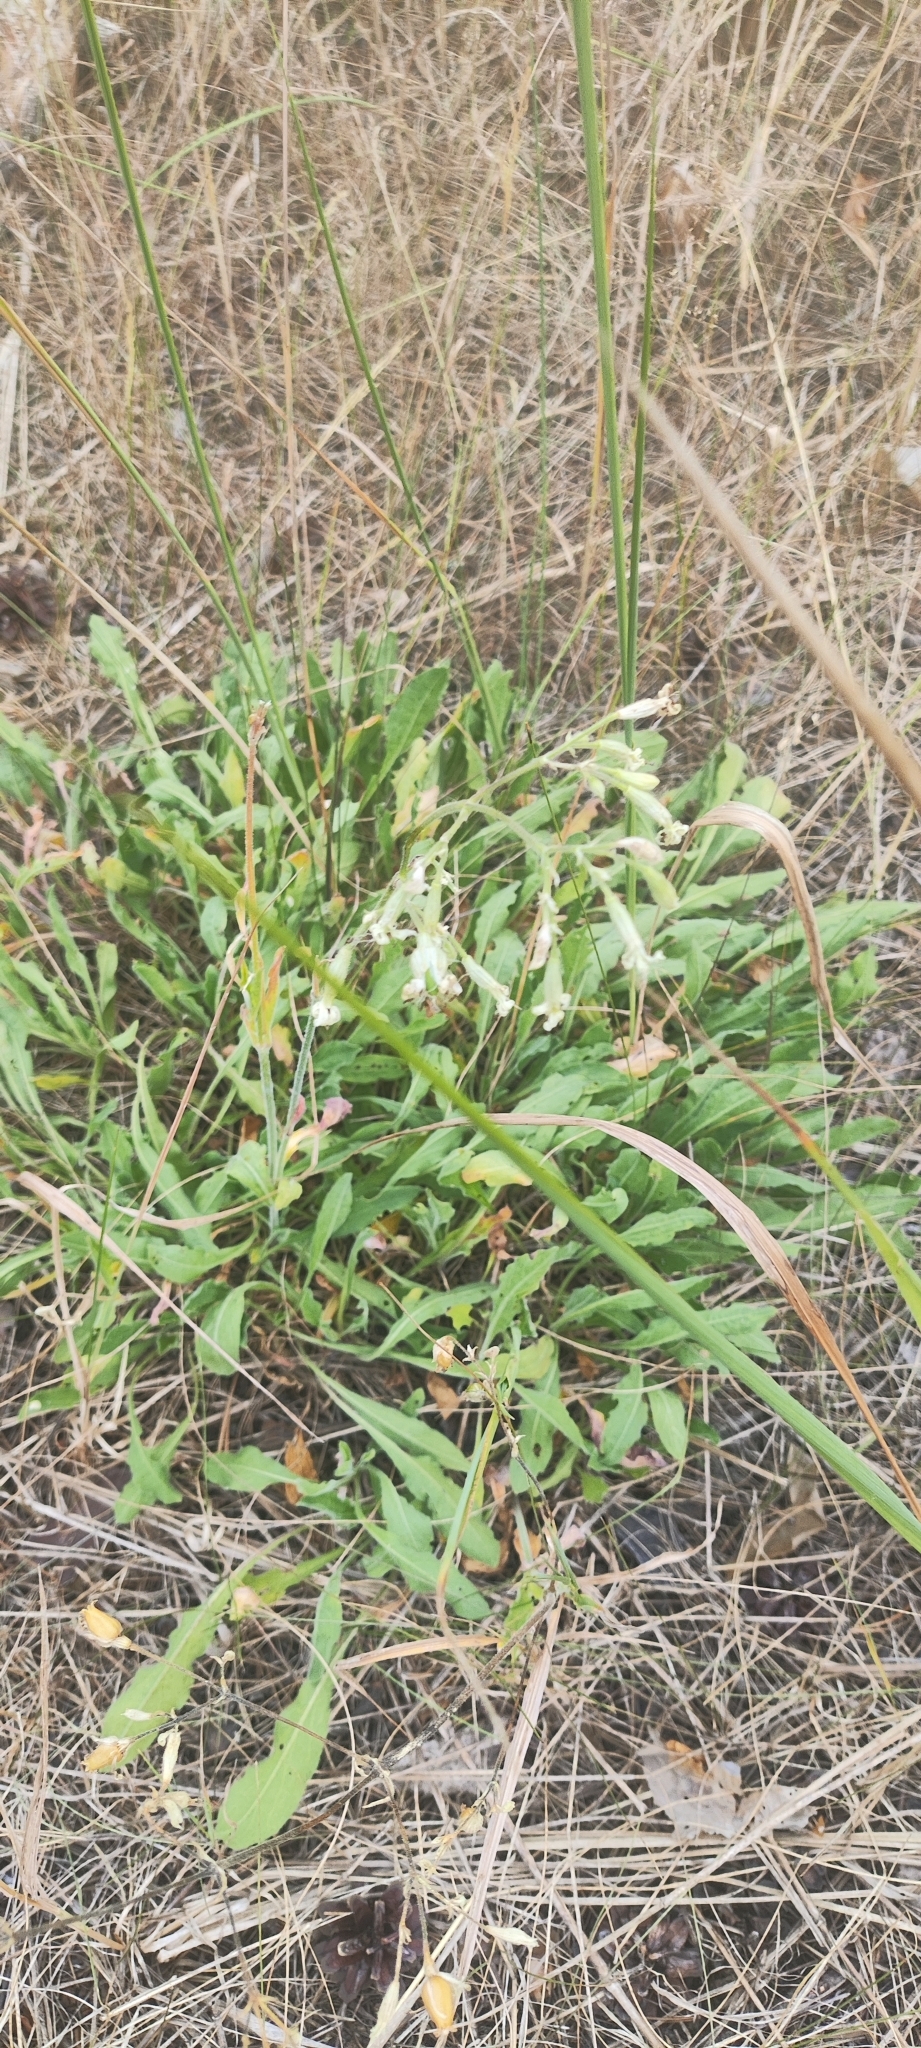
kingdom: Plantae
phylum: Tracheophyta
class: Magnoliopsida
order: Caryophyllales
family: Caryophyllaceae
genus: Silene
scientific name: Silene nutans
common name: Nottingham catchfly
